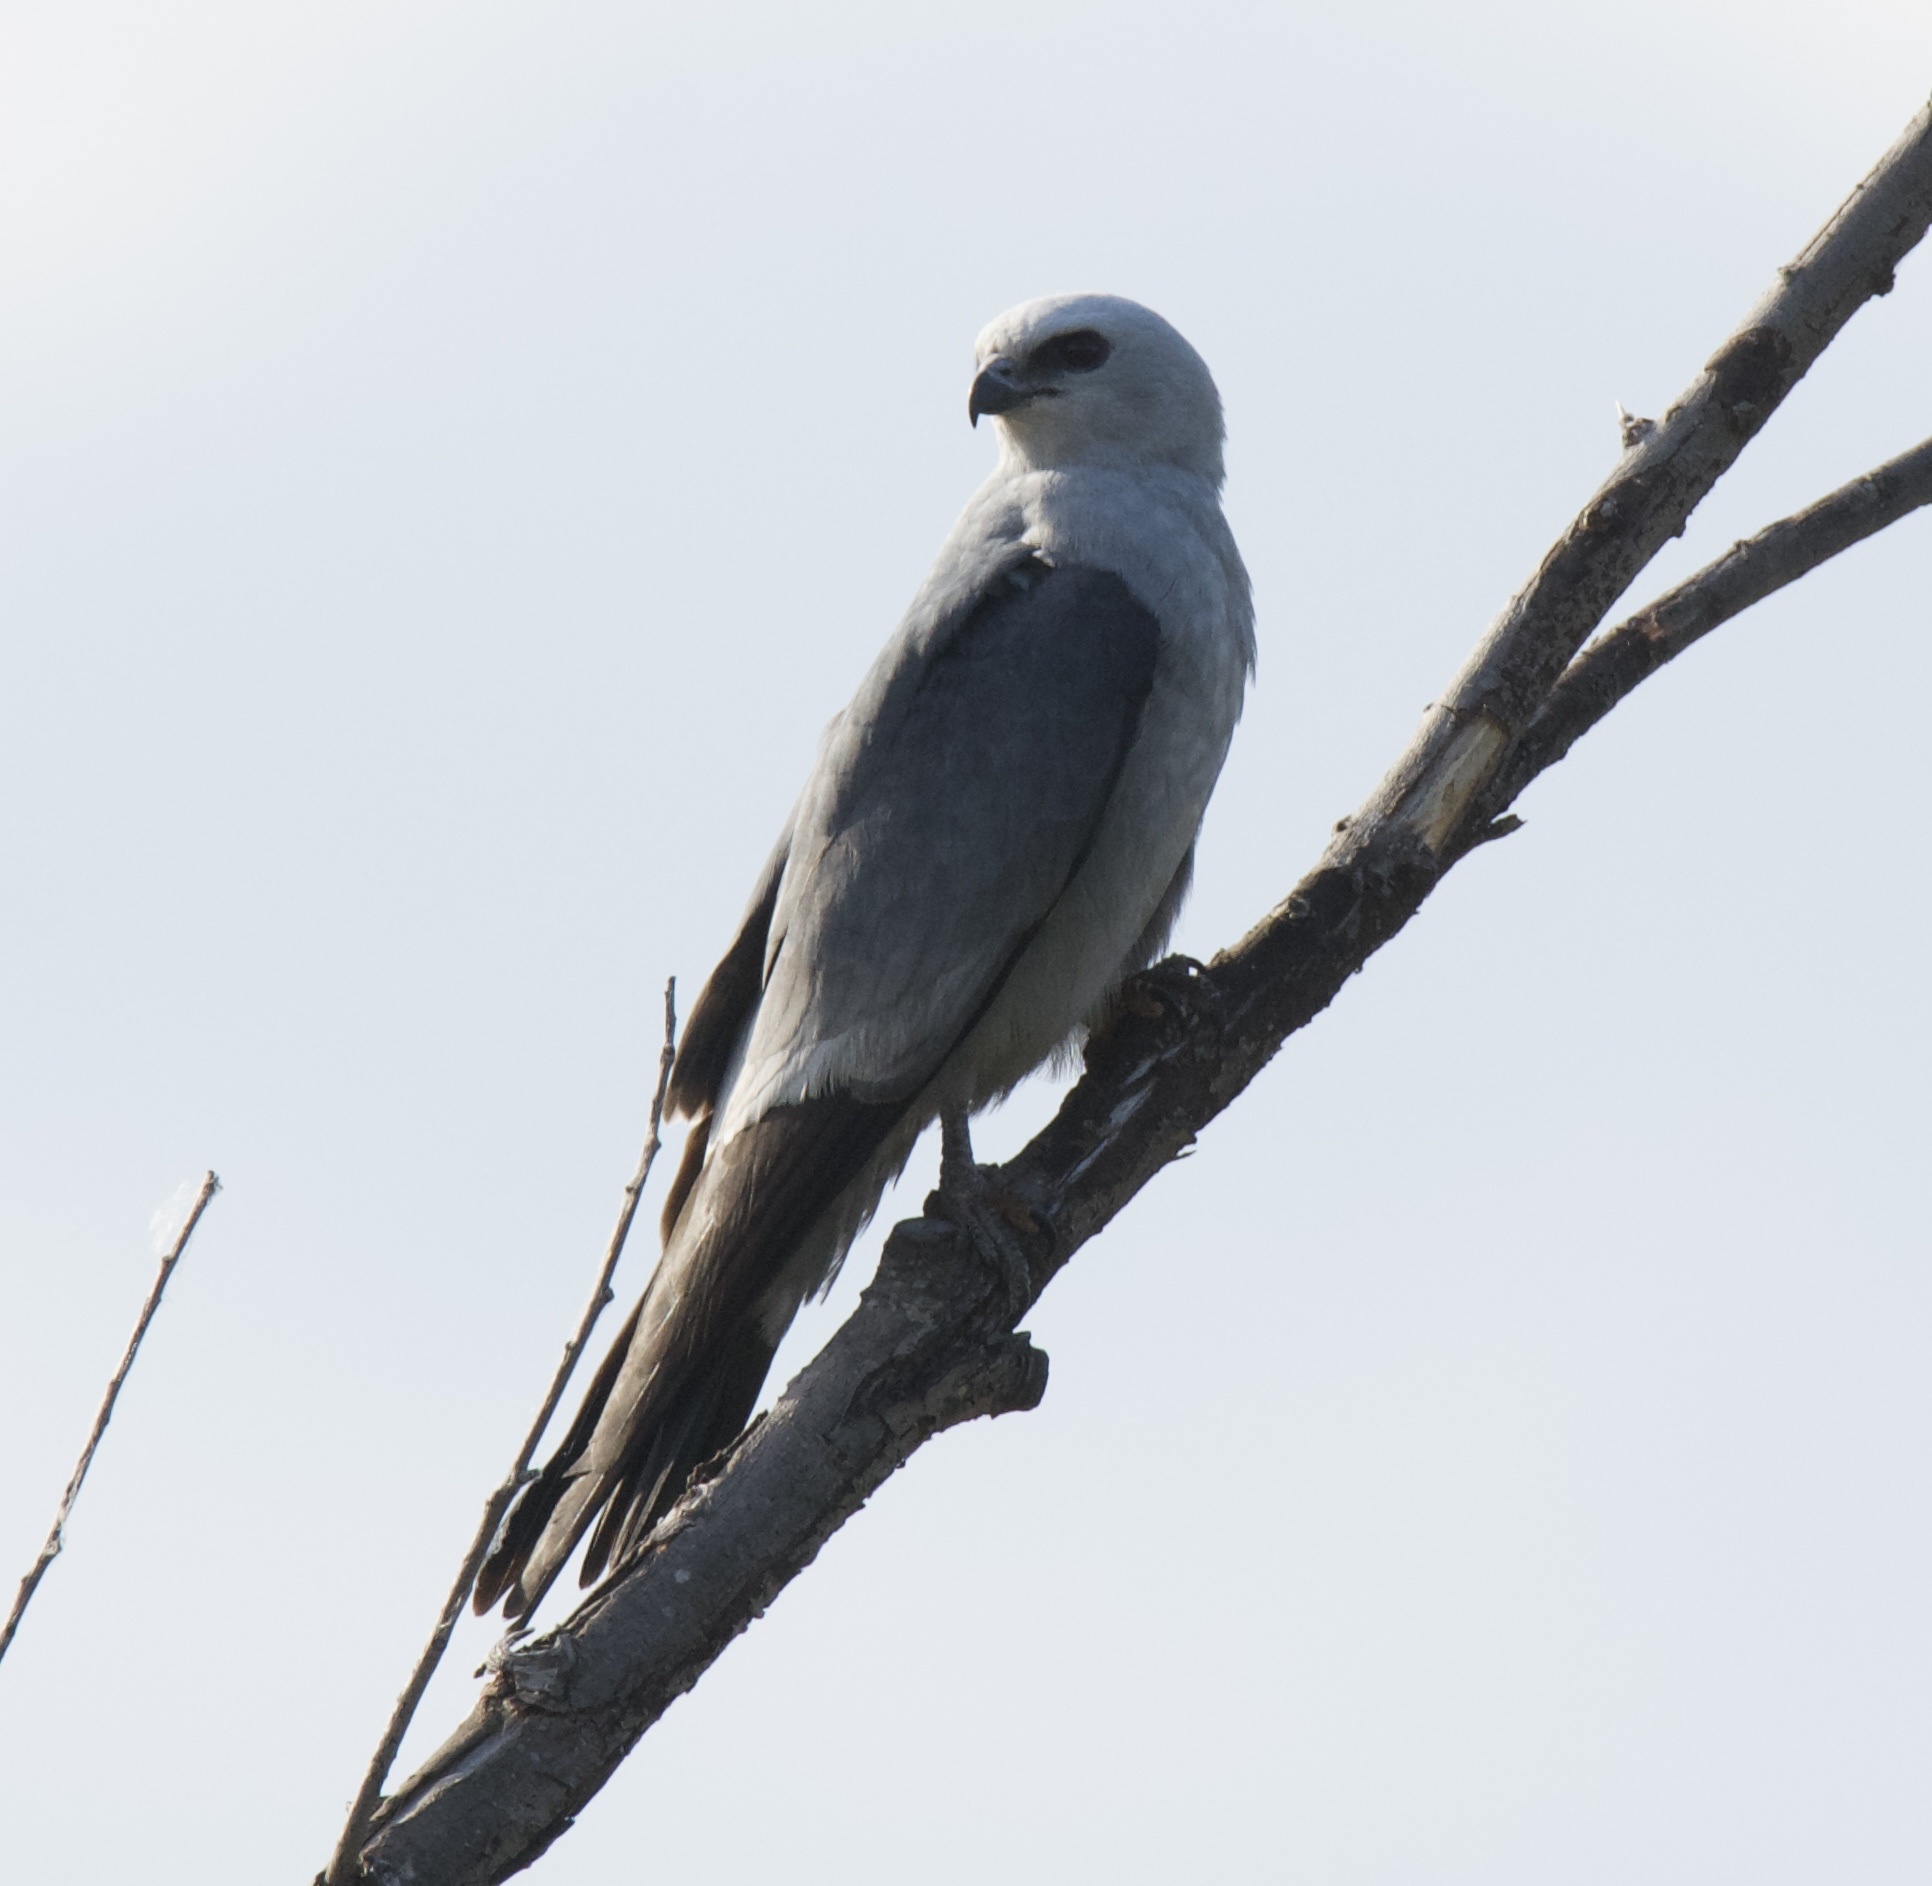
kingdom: Animalia
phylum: Chordata
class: Aves
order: Accipitriformes
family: Accipitridae
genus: Ictinia
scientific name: Ictinia mississippiensis
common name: Mississippi kite
